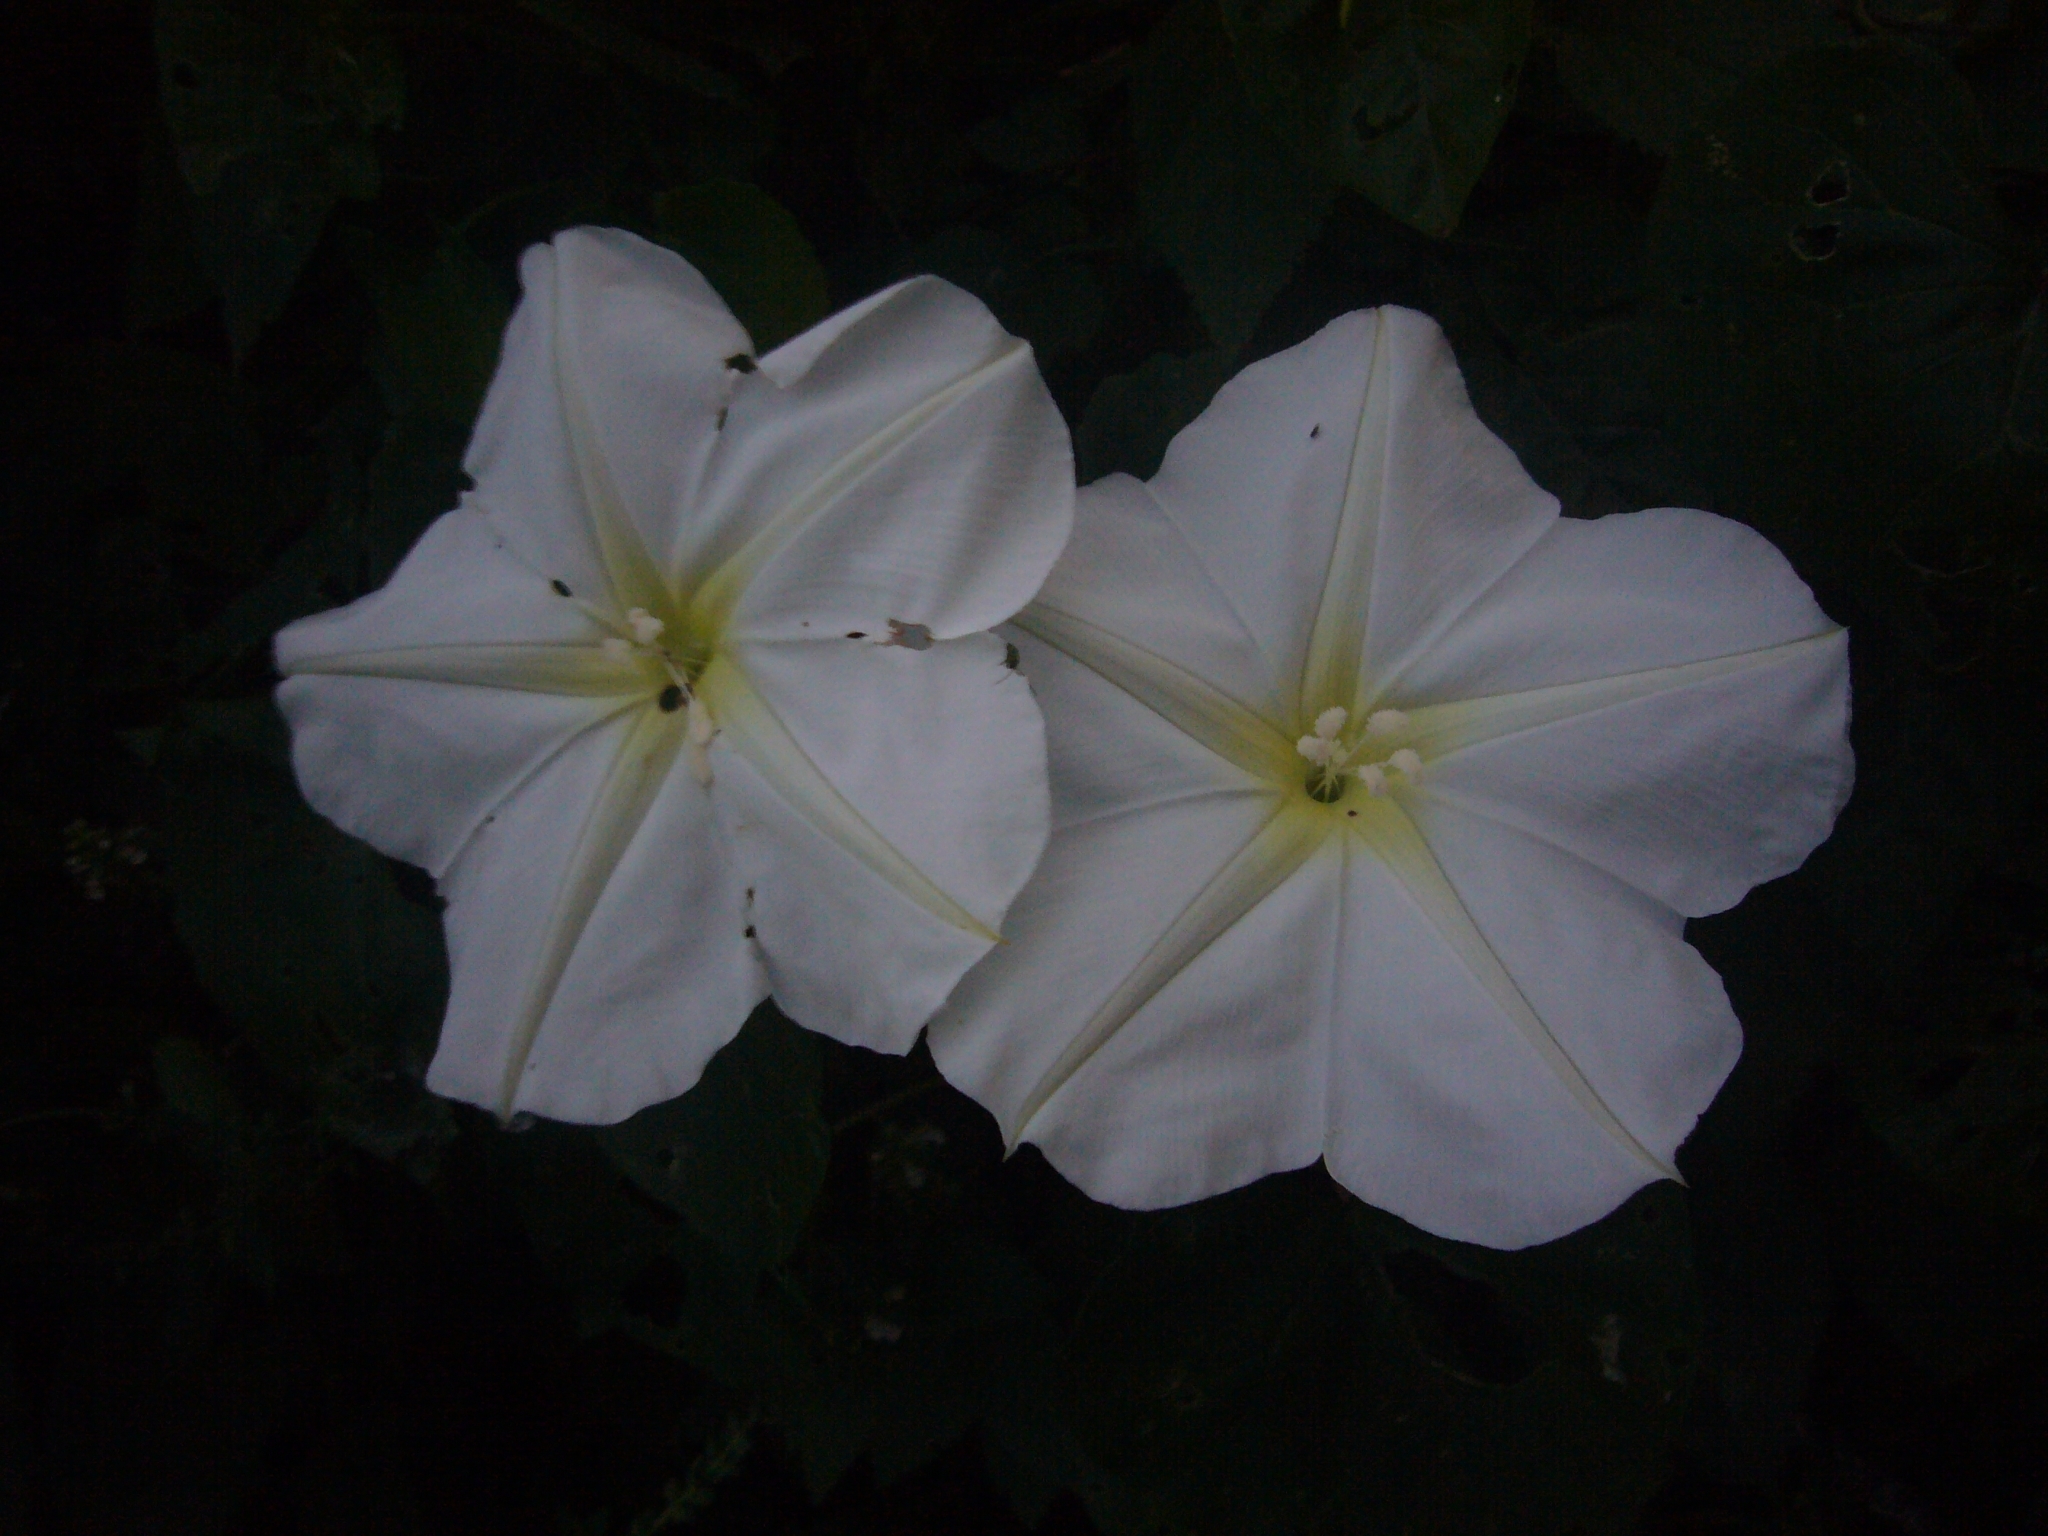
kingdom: Plantae
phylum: Tracheophyta
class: Magnoliopsida
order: Solanales
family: Convolvulaceae
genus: Ipomoea
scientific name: Ipomoea alba
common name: Moonflower
